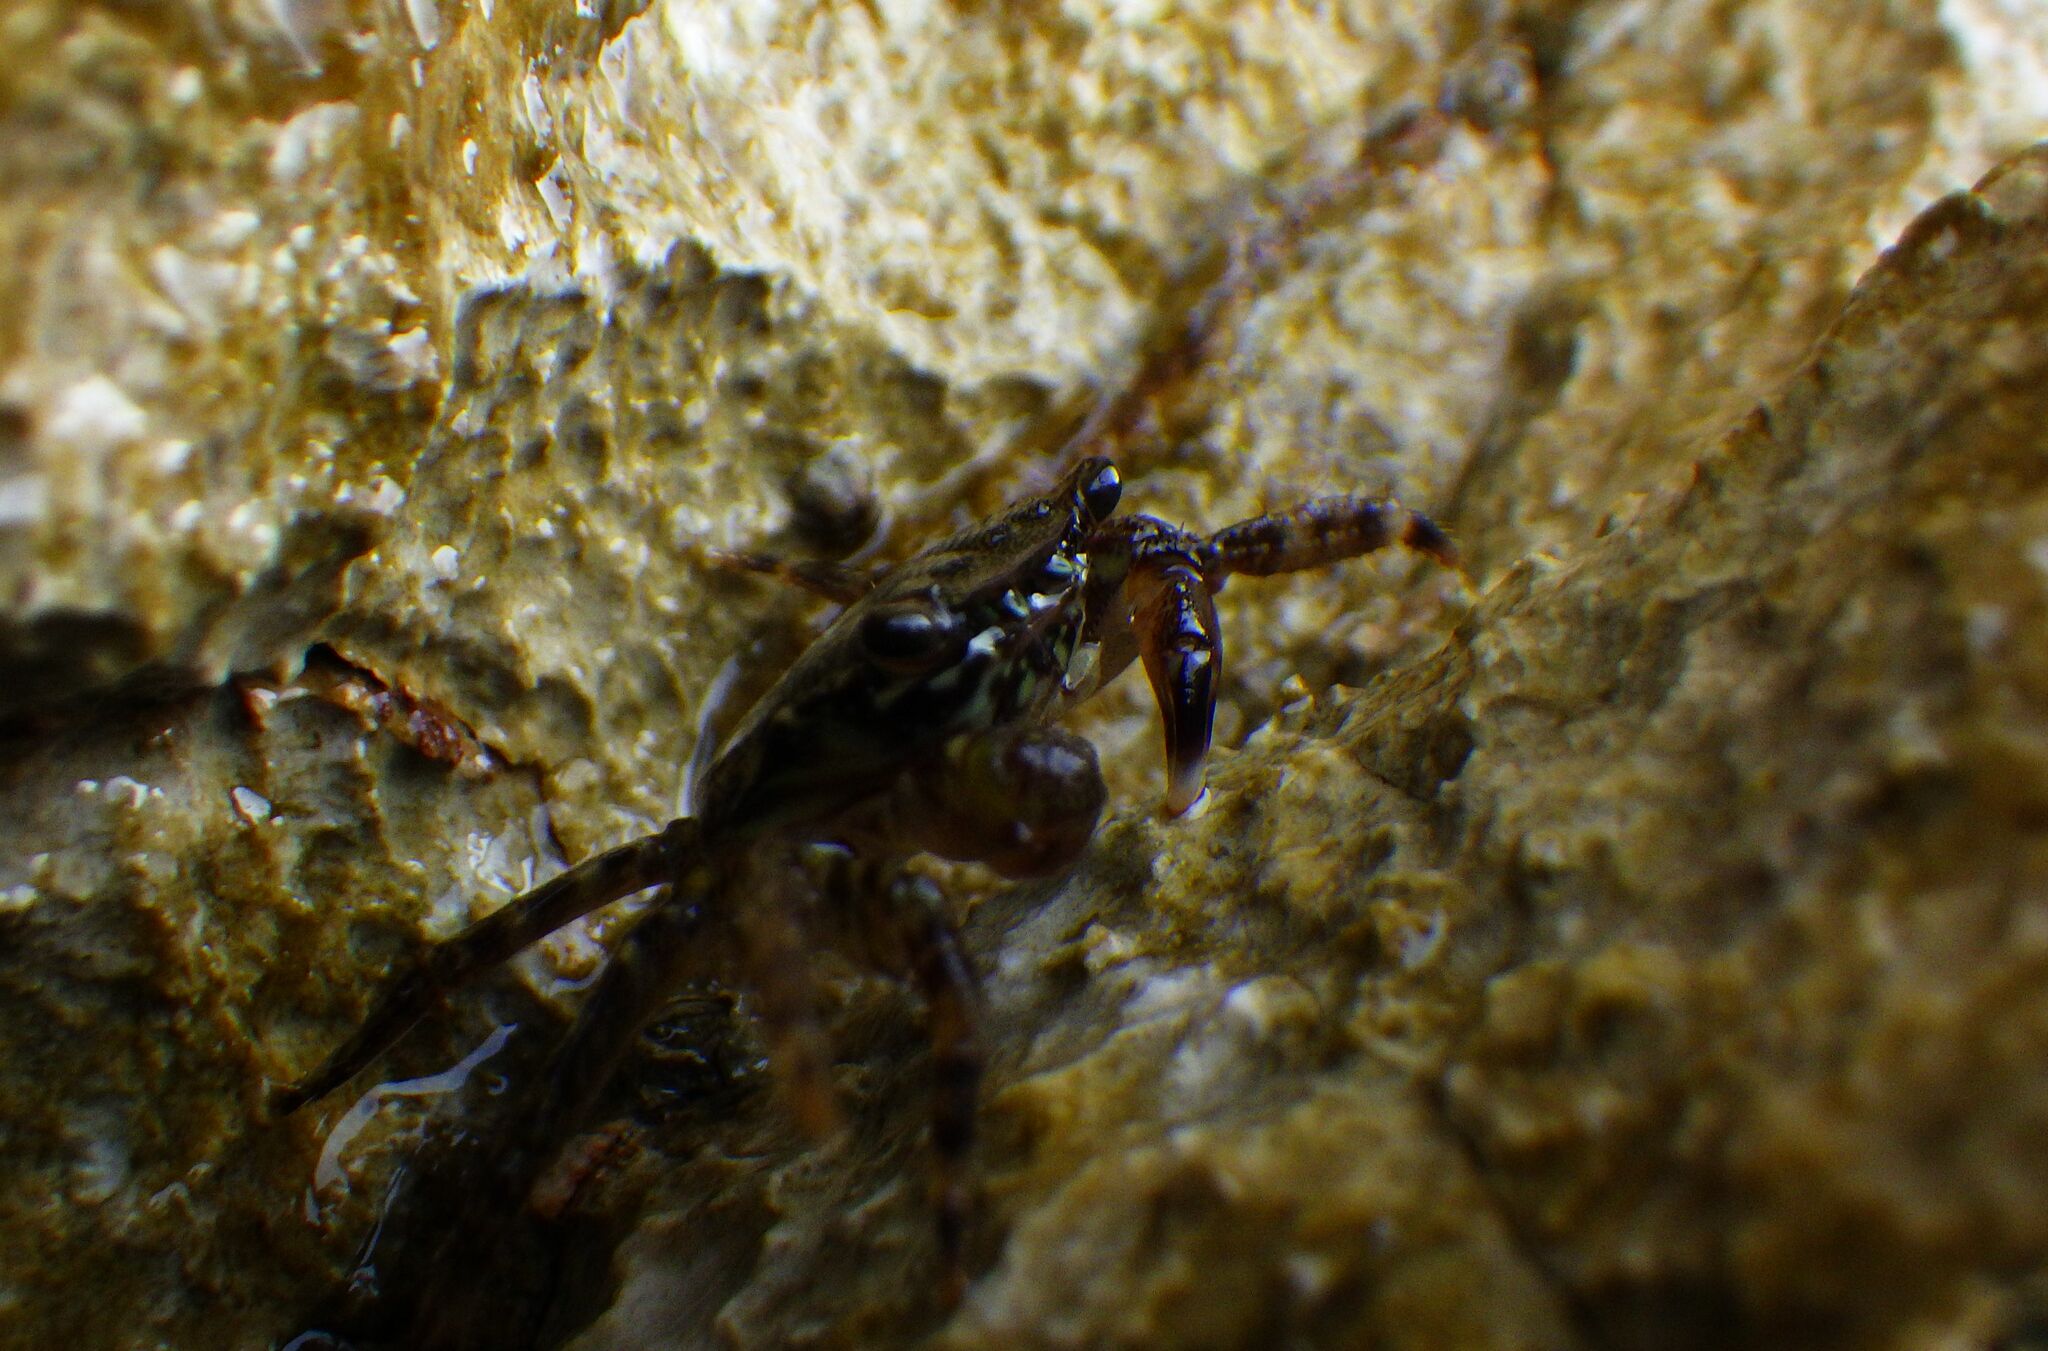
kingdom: Animalia
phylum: Arthropoda
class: Malacostraca
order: Decapoda
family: Grapsidae
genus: Pachygrapsus
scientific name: Pachygrapsus marmoratus
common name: Marbled rock crab
